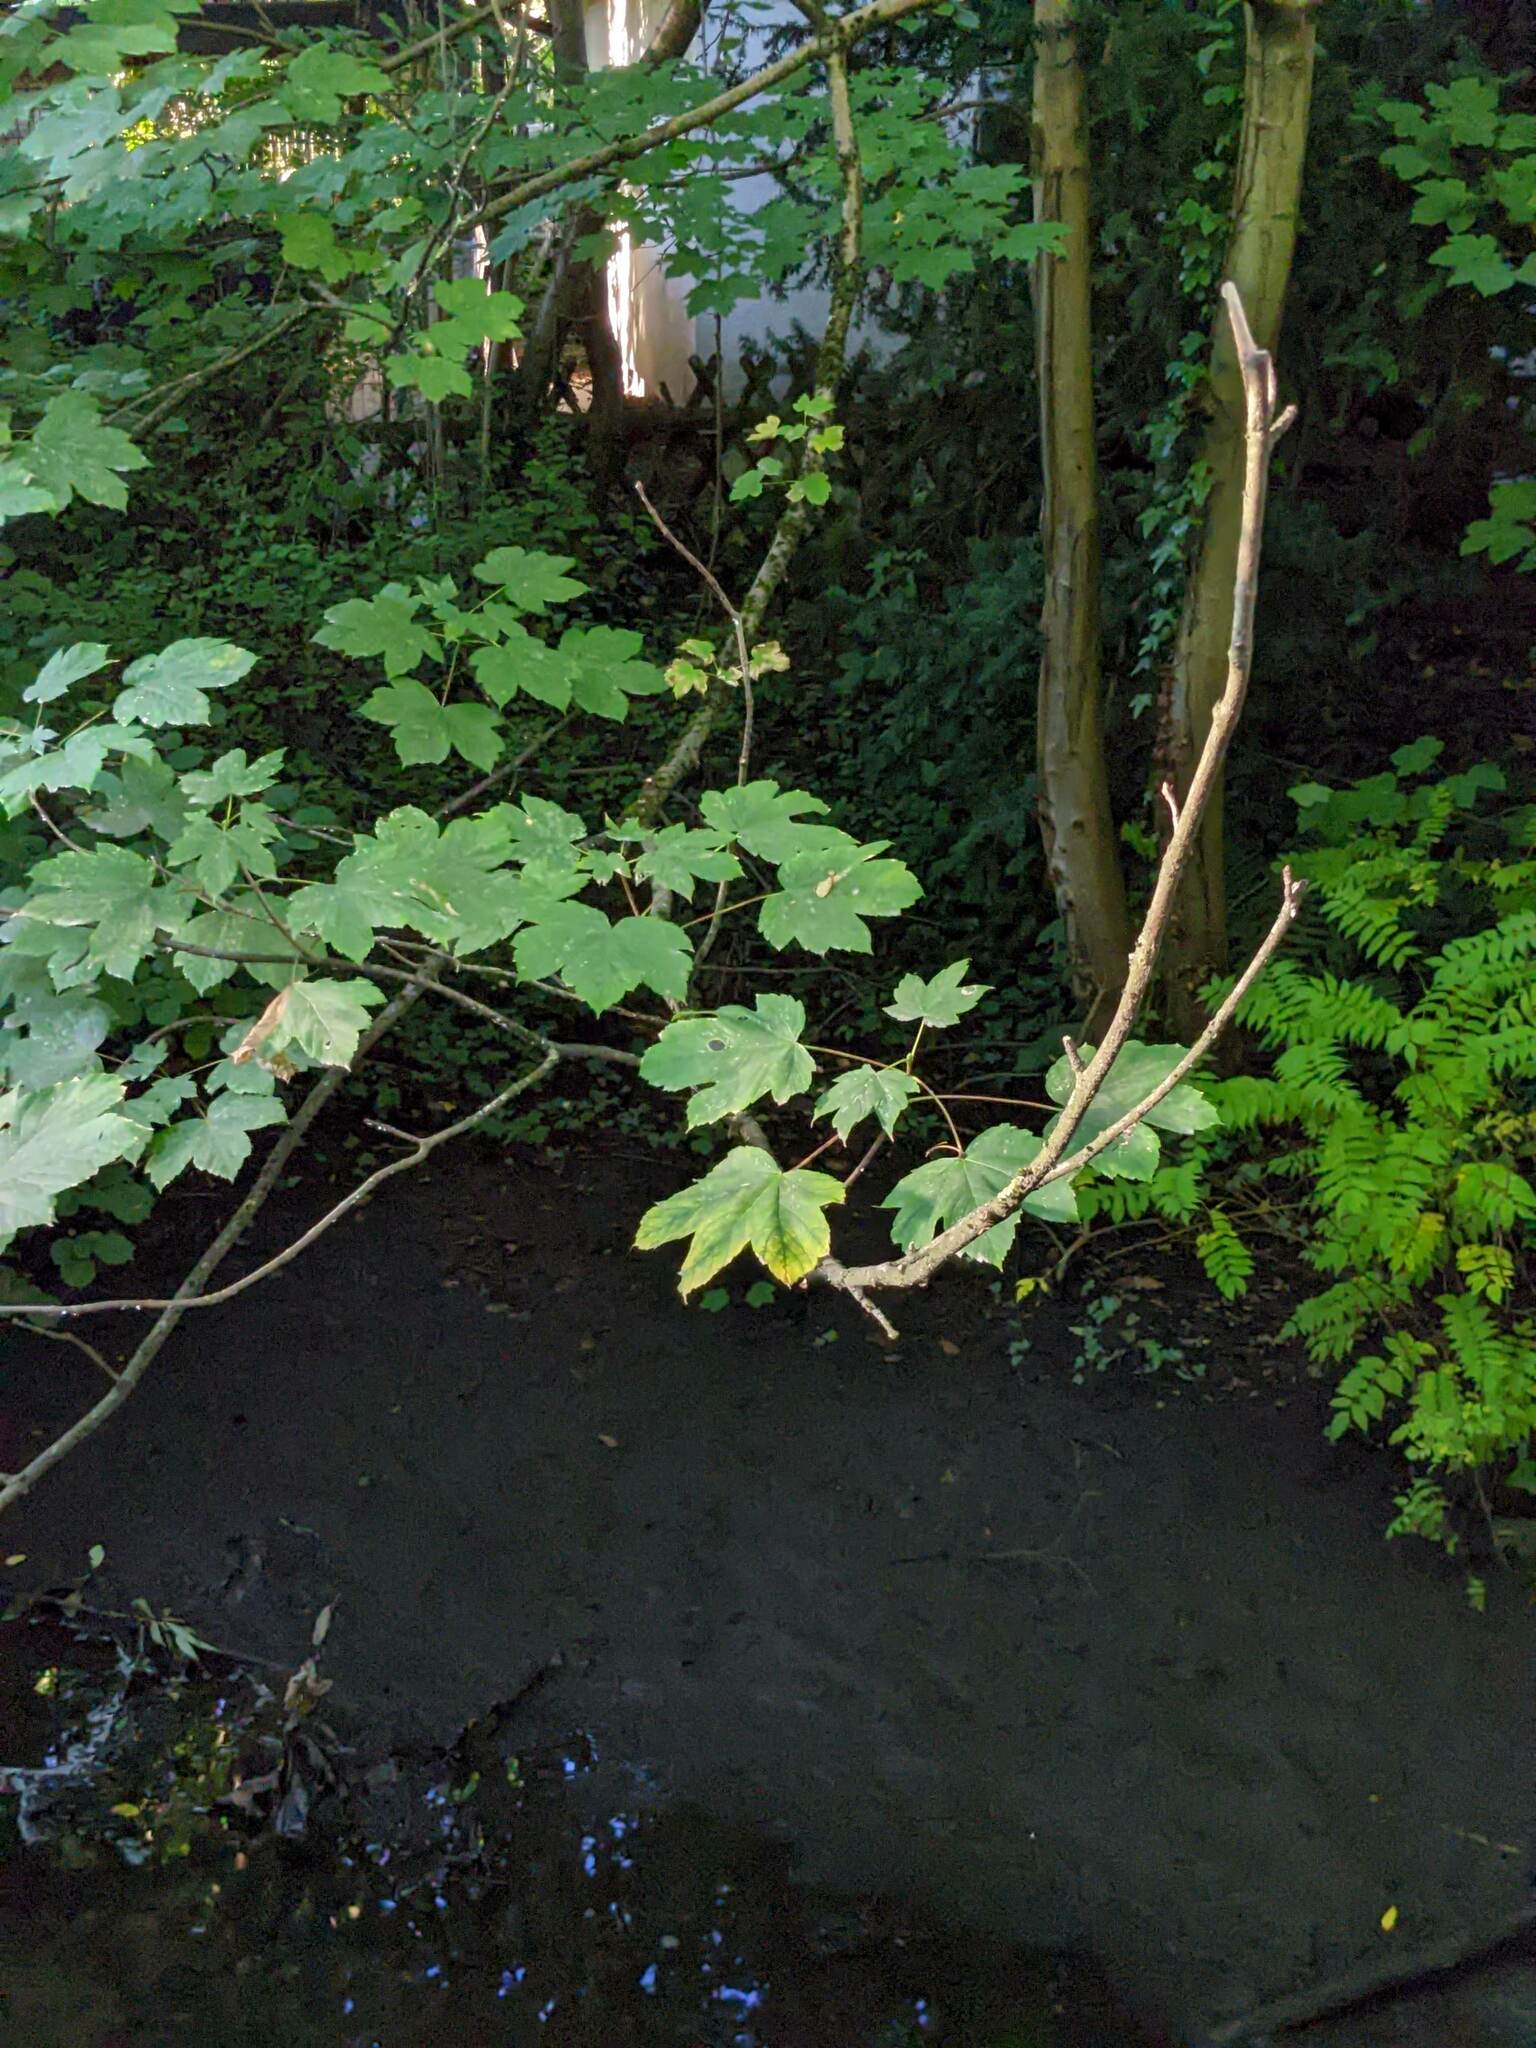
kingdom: Plantae
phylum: Tracheophyta
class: Magnoliopsida
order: Sapindales
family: Sapindaceae
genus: Acer
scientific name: Acer pseudoplatanus
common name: Sycamore
